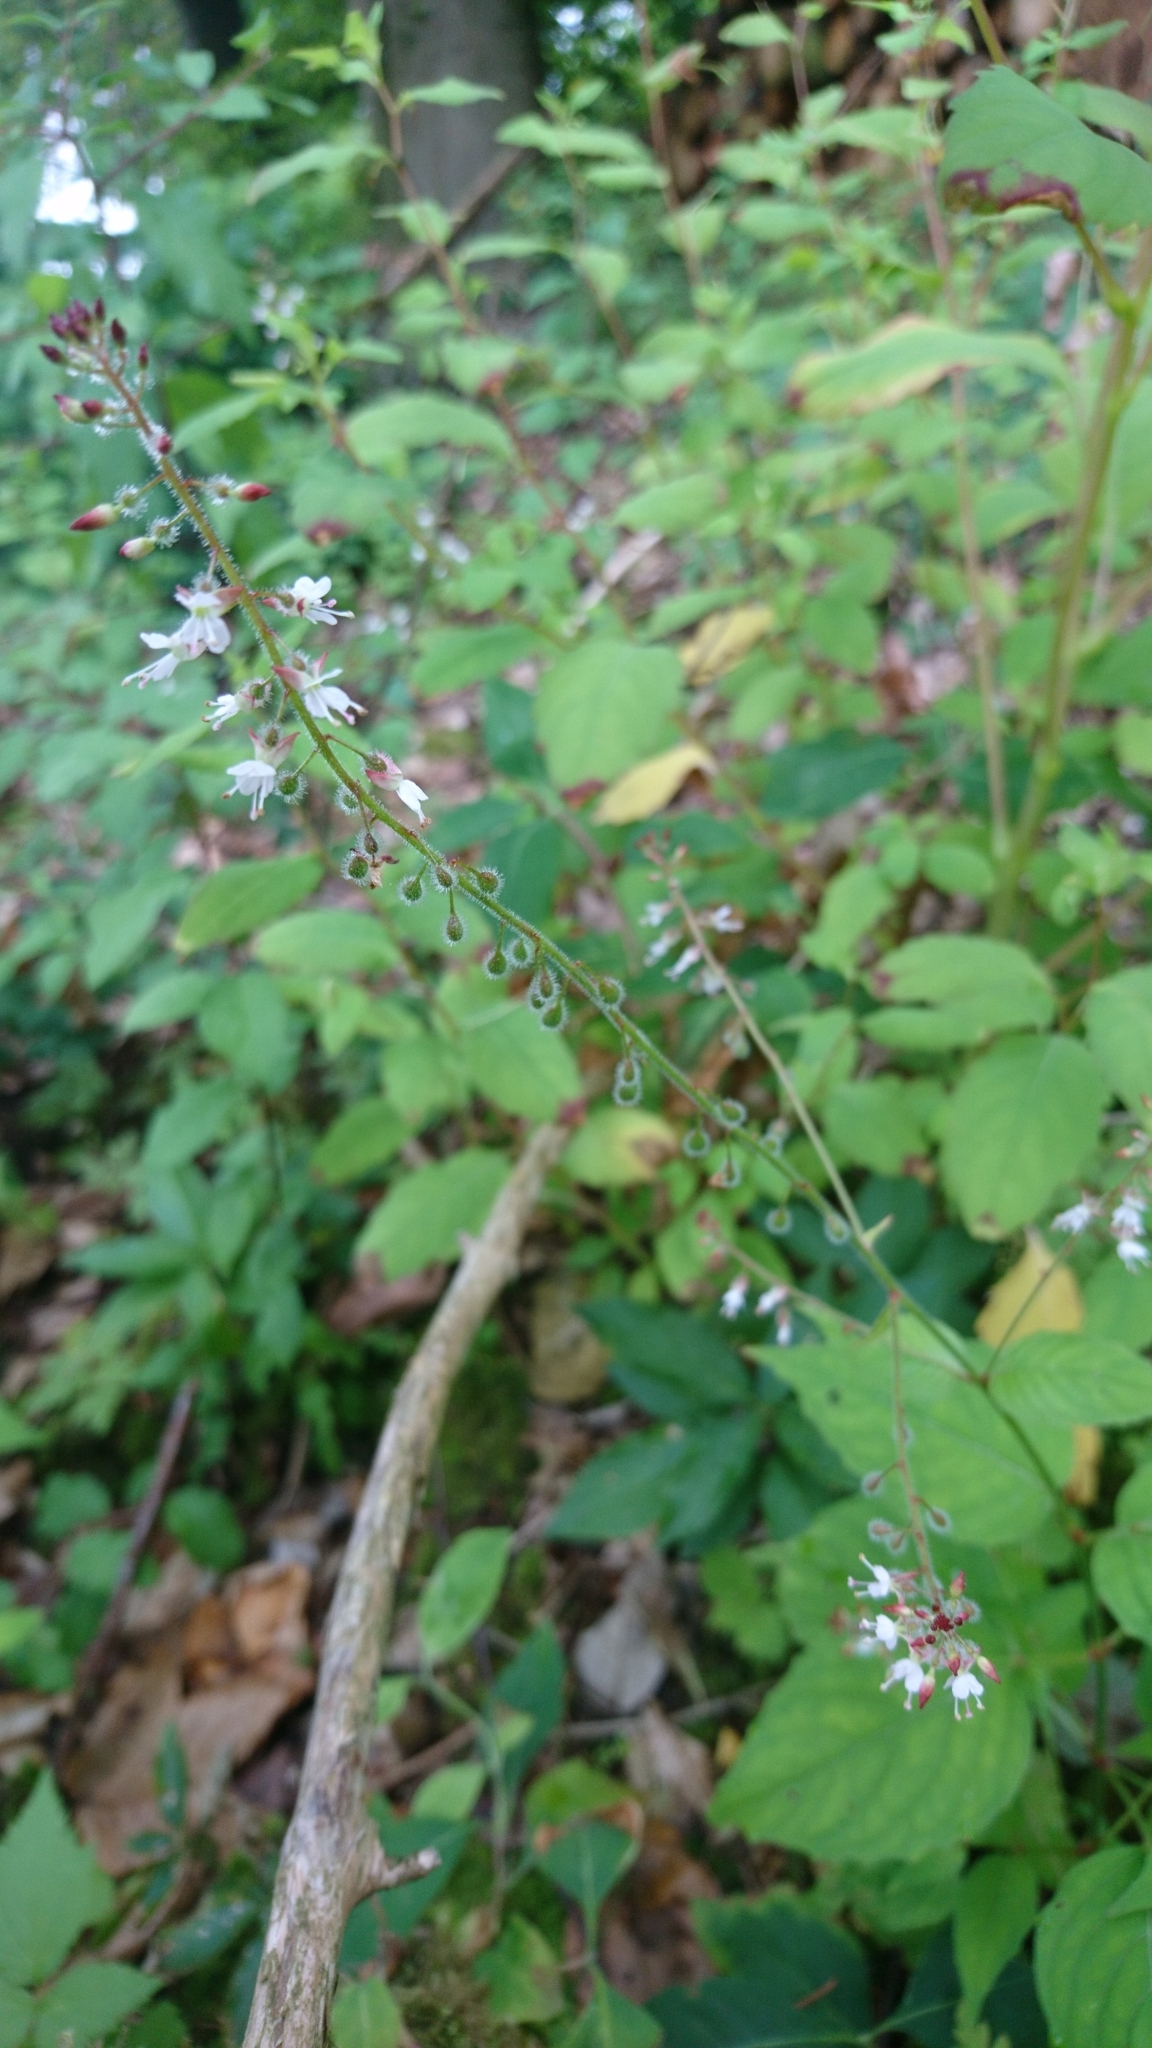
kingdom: Plantae
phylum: Tracheophyta
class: Magnoliopsida
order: Myrtales
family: Onagraceae
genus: Circaea
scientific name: Circaea lutetiana
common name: Enchanter's-nightshade
